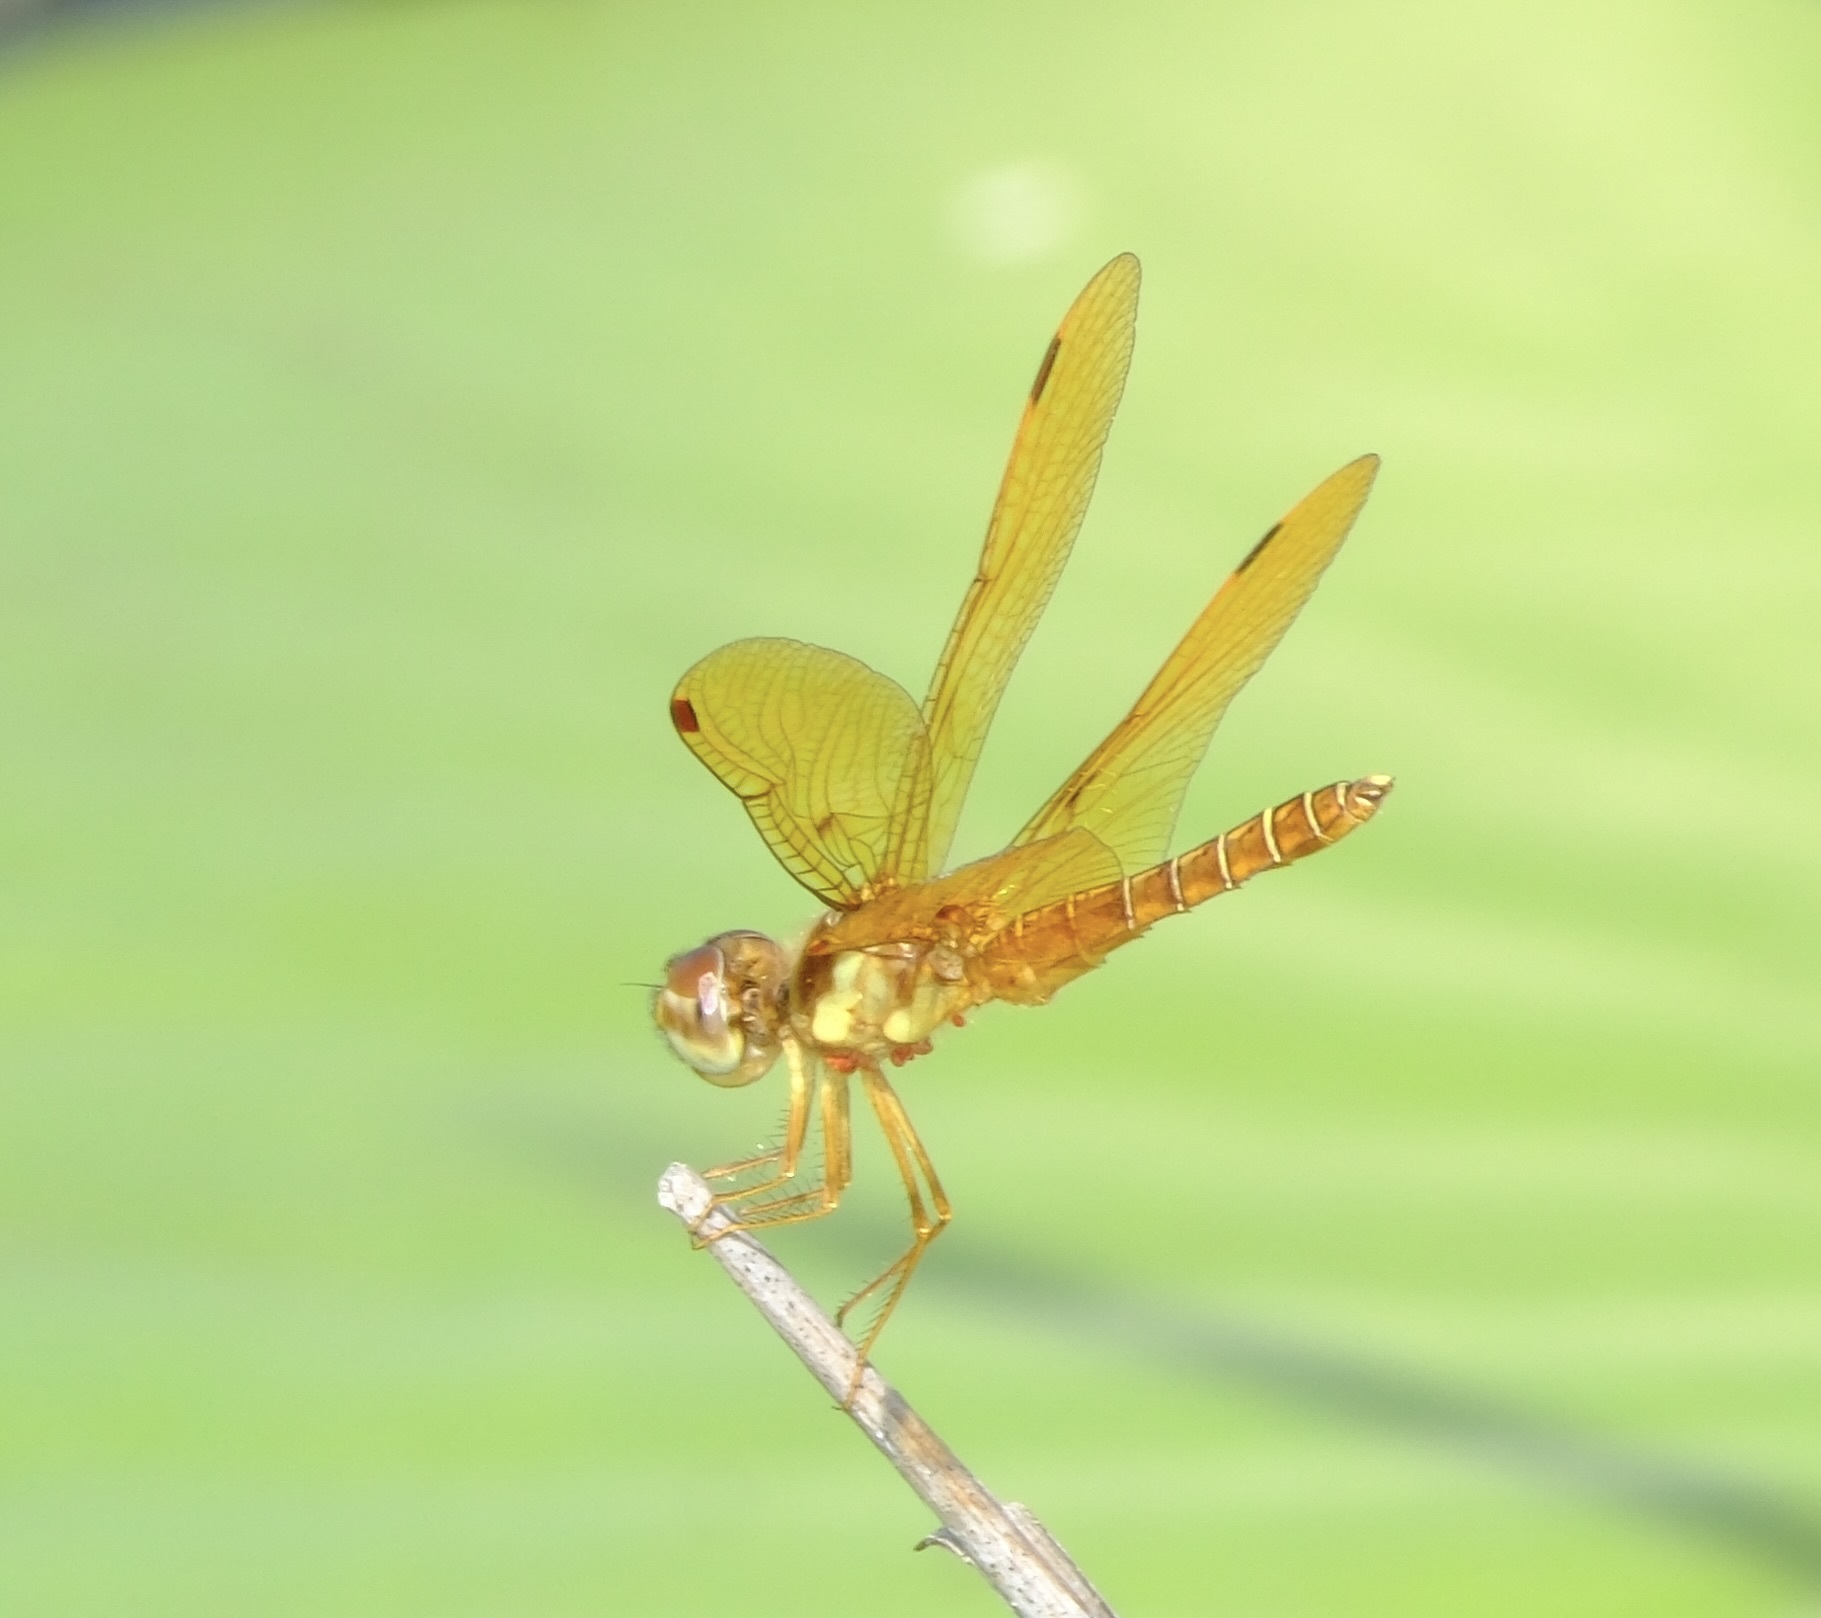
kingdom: Animalia
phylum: Arthropoda
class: Insecta
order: Odonata
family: Libellulidae
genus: Perithemis
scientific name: Perithemis tenera
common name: Eastern amberwing
